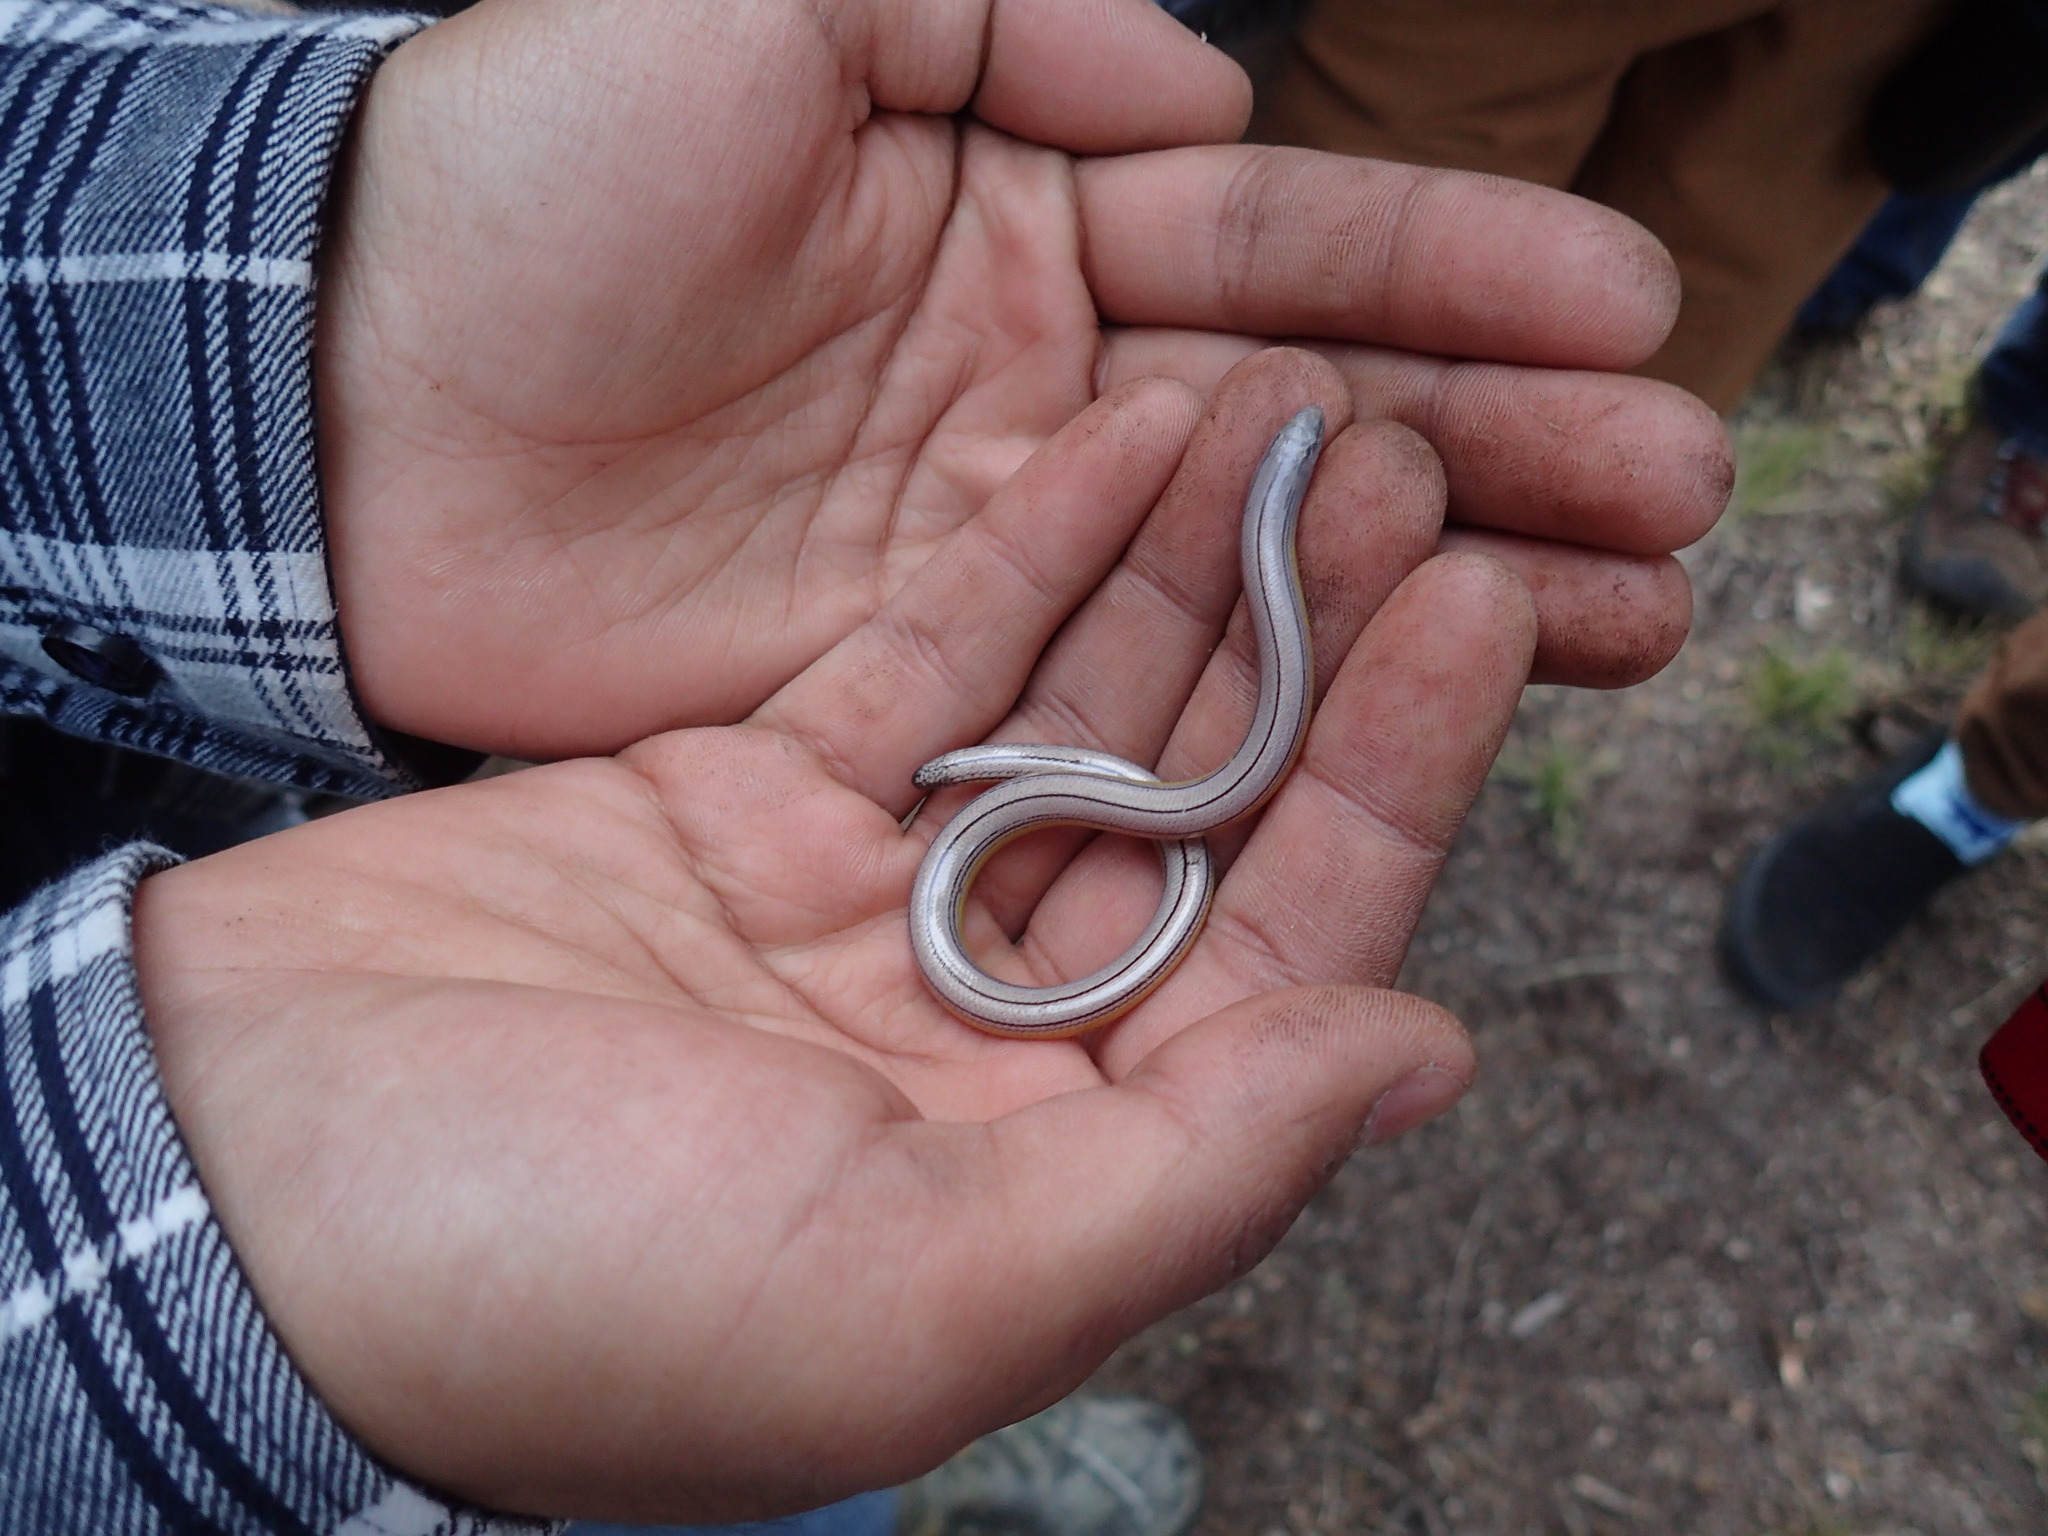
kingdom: Animalia
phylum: Chordata
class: Squamata
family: Anguidae
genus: Anniella
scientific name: Anniella pulchra
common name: California legless lizard
